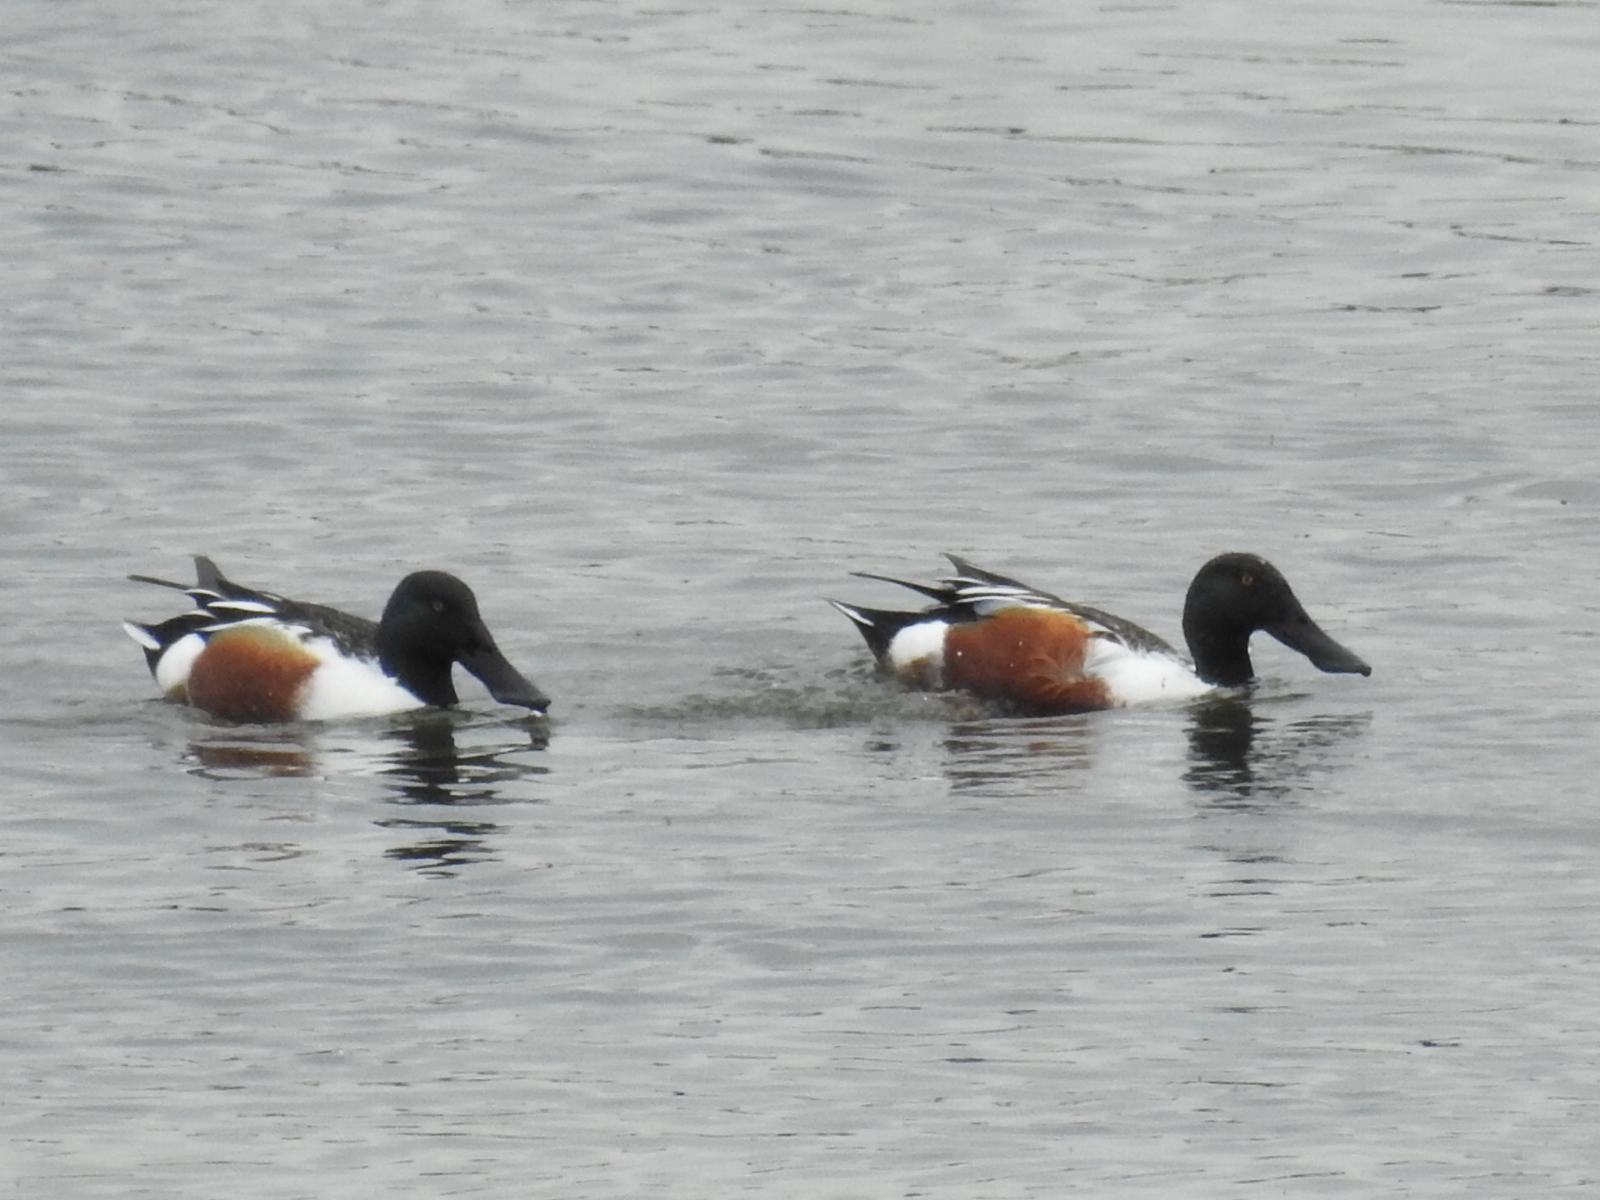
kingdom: Animalia
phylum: Chordata
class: Aves
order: Anseriformes
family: Anatidae
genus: Spatula
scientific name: Spatula clypeata
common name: Northern shoveler
